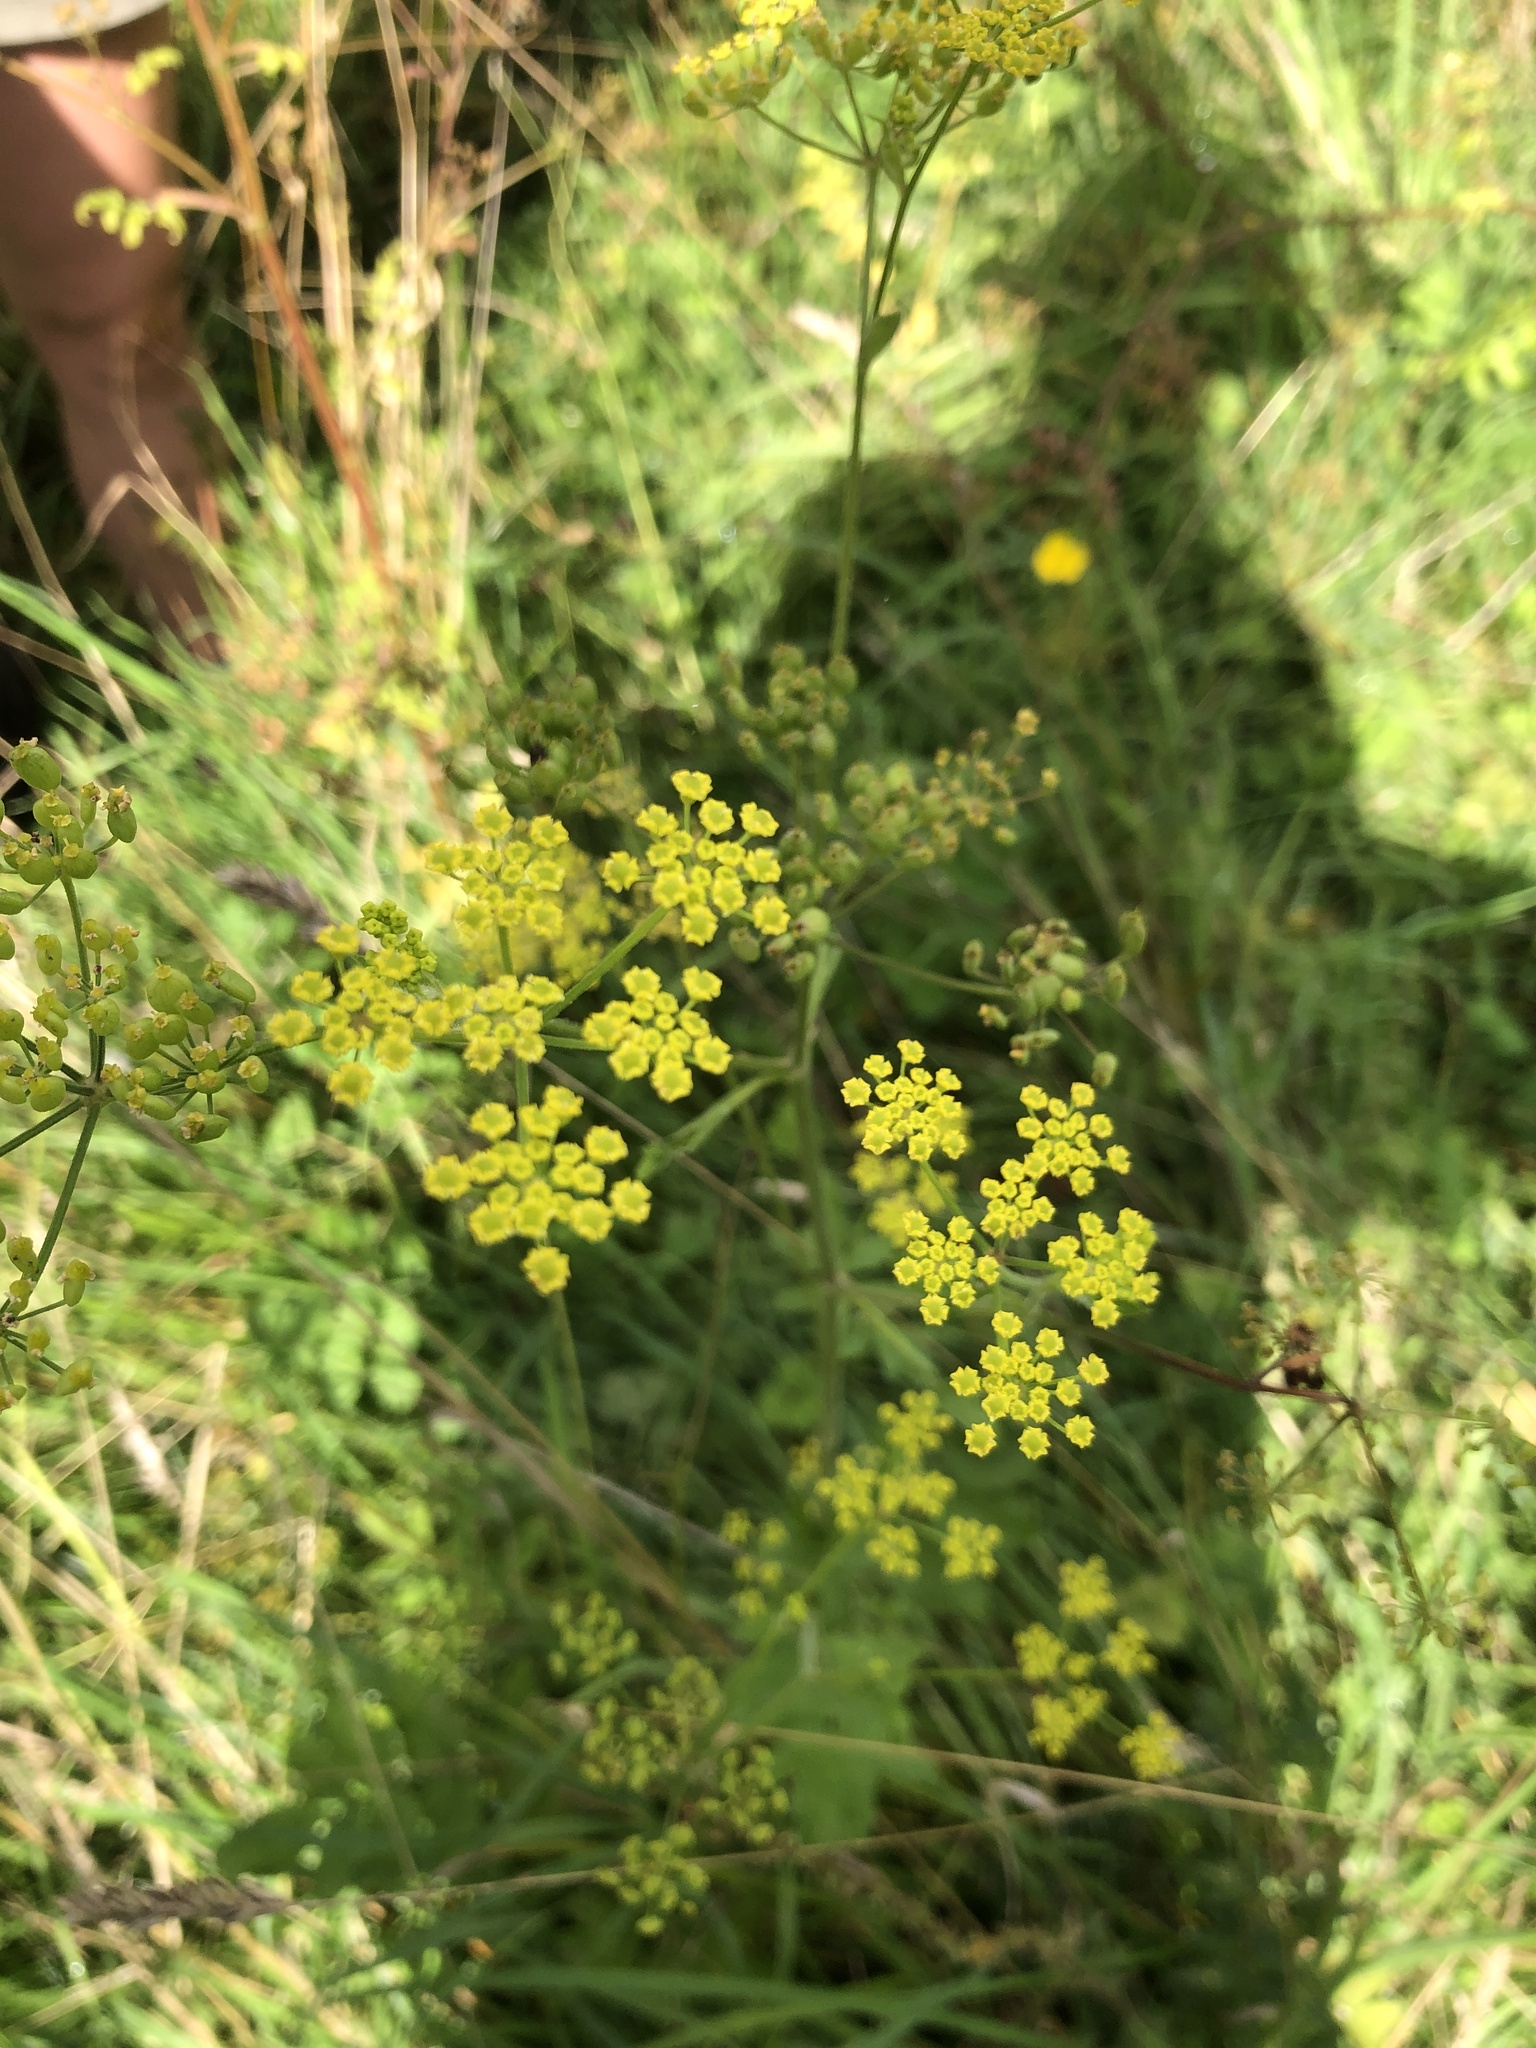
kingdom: Plantae
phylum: Tracheophyta
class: Magnoliopsida
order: Apiales
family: Apiaceae
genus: Pastinaca
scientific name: Pastinaca sativa
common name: Wild parsnip
